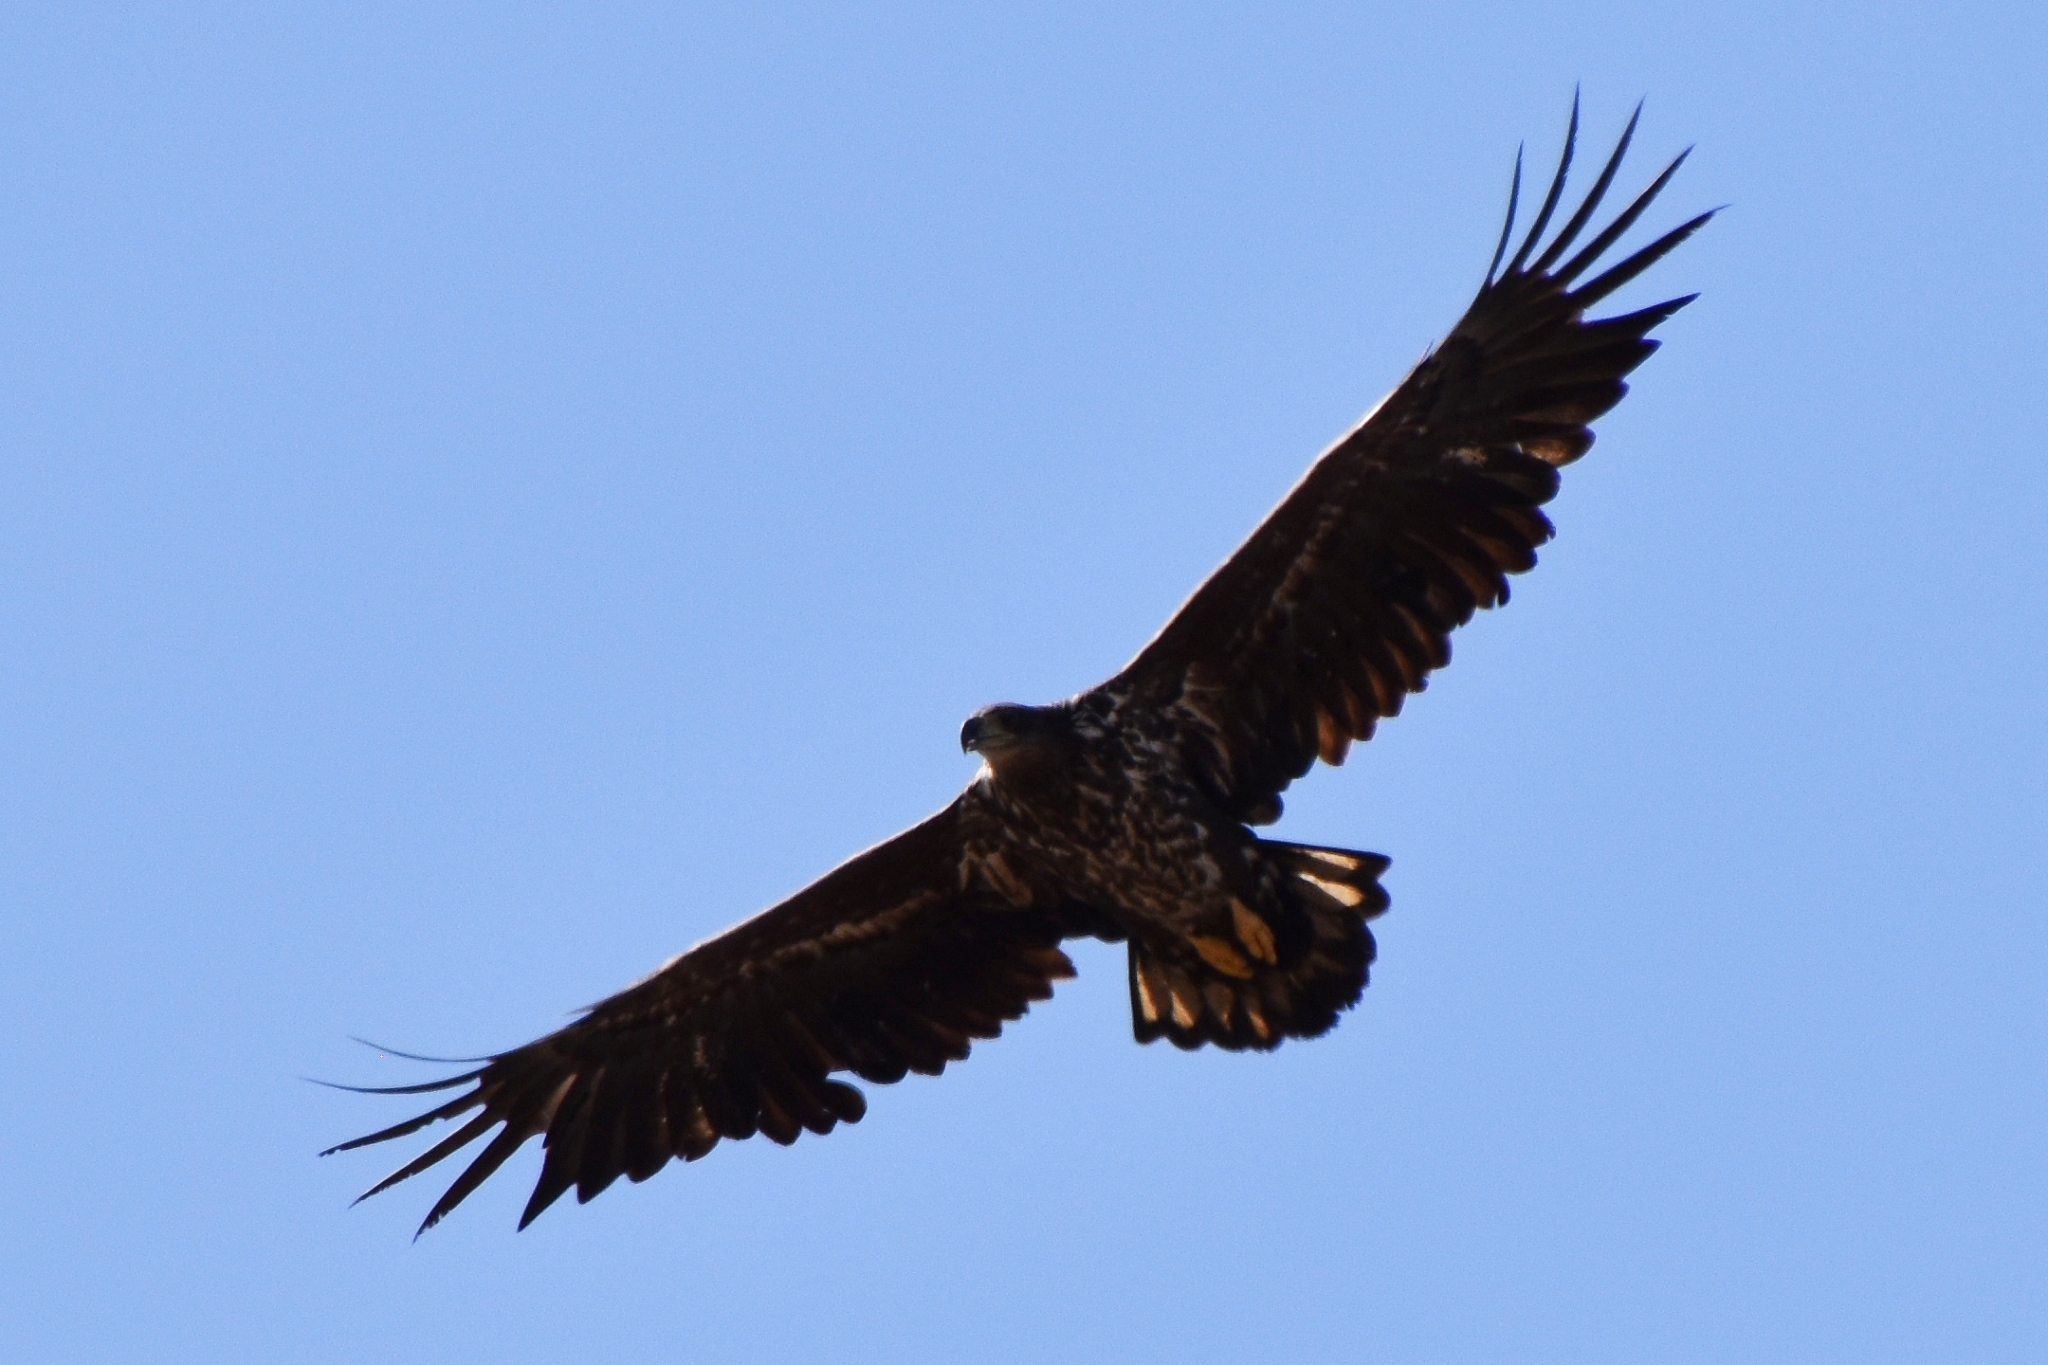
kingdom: Animalia
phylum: Chordata
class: Aves
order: Accipitriformes
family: Accipitridae
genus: Haliaeetus
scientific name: Haliaeetus albicilla
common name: White-tailed eagle
